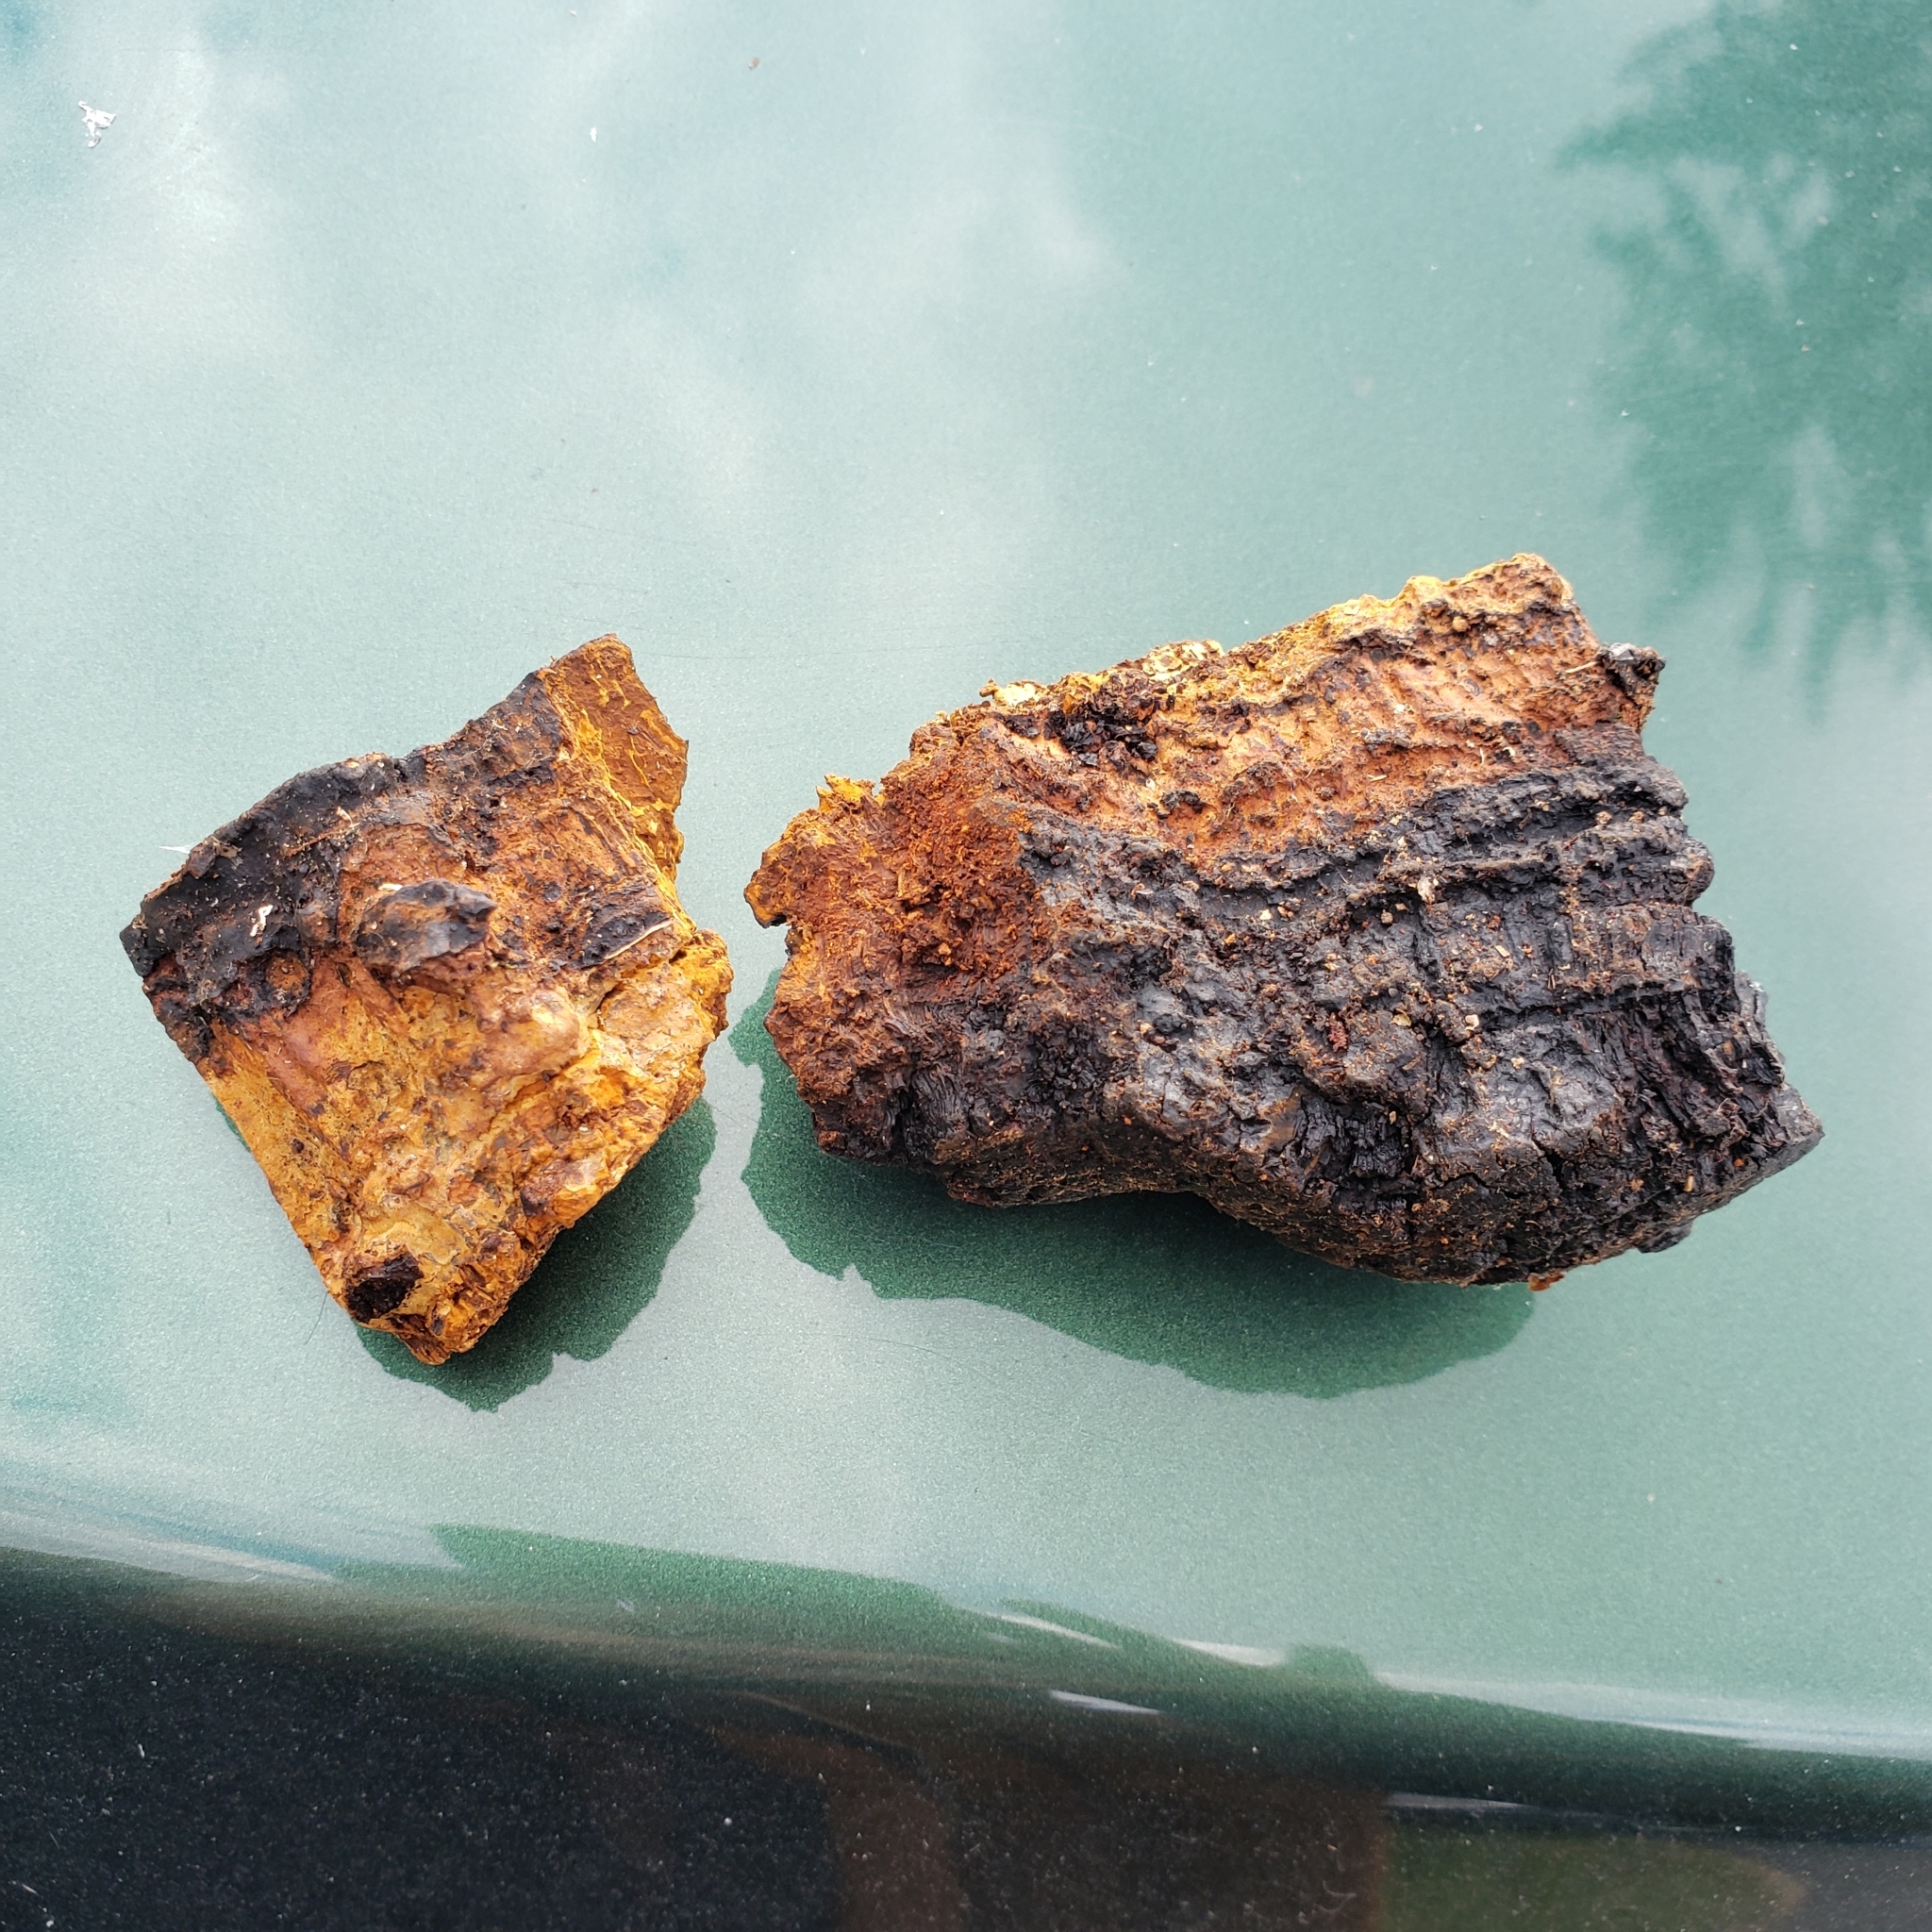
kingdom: Fungi
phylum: Basidiomycota
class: Agaricomycetes
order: Hymenochaetales
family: Hymenochaetaceae
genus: Inonotus
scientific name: Inonotus obliquus
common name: Chaga
